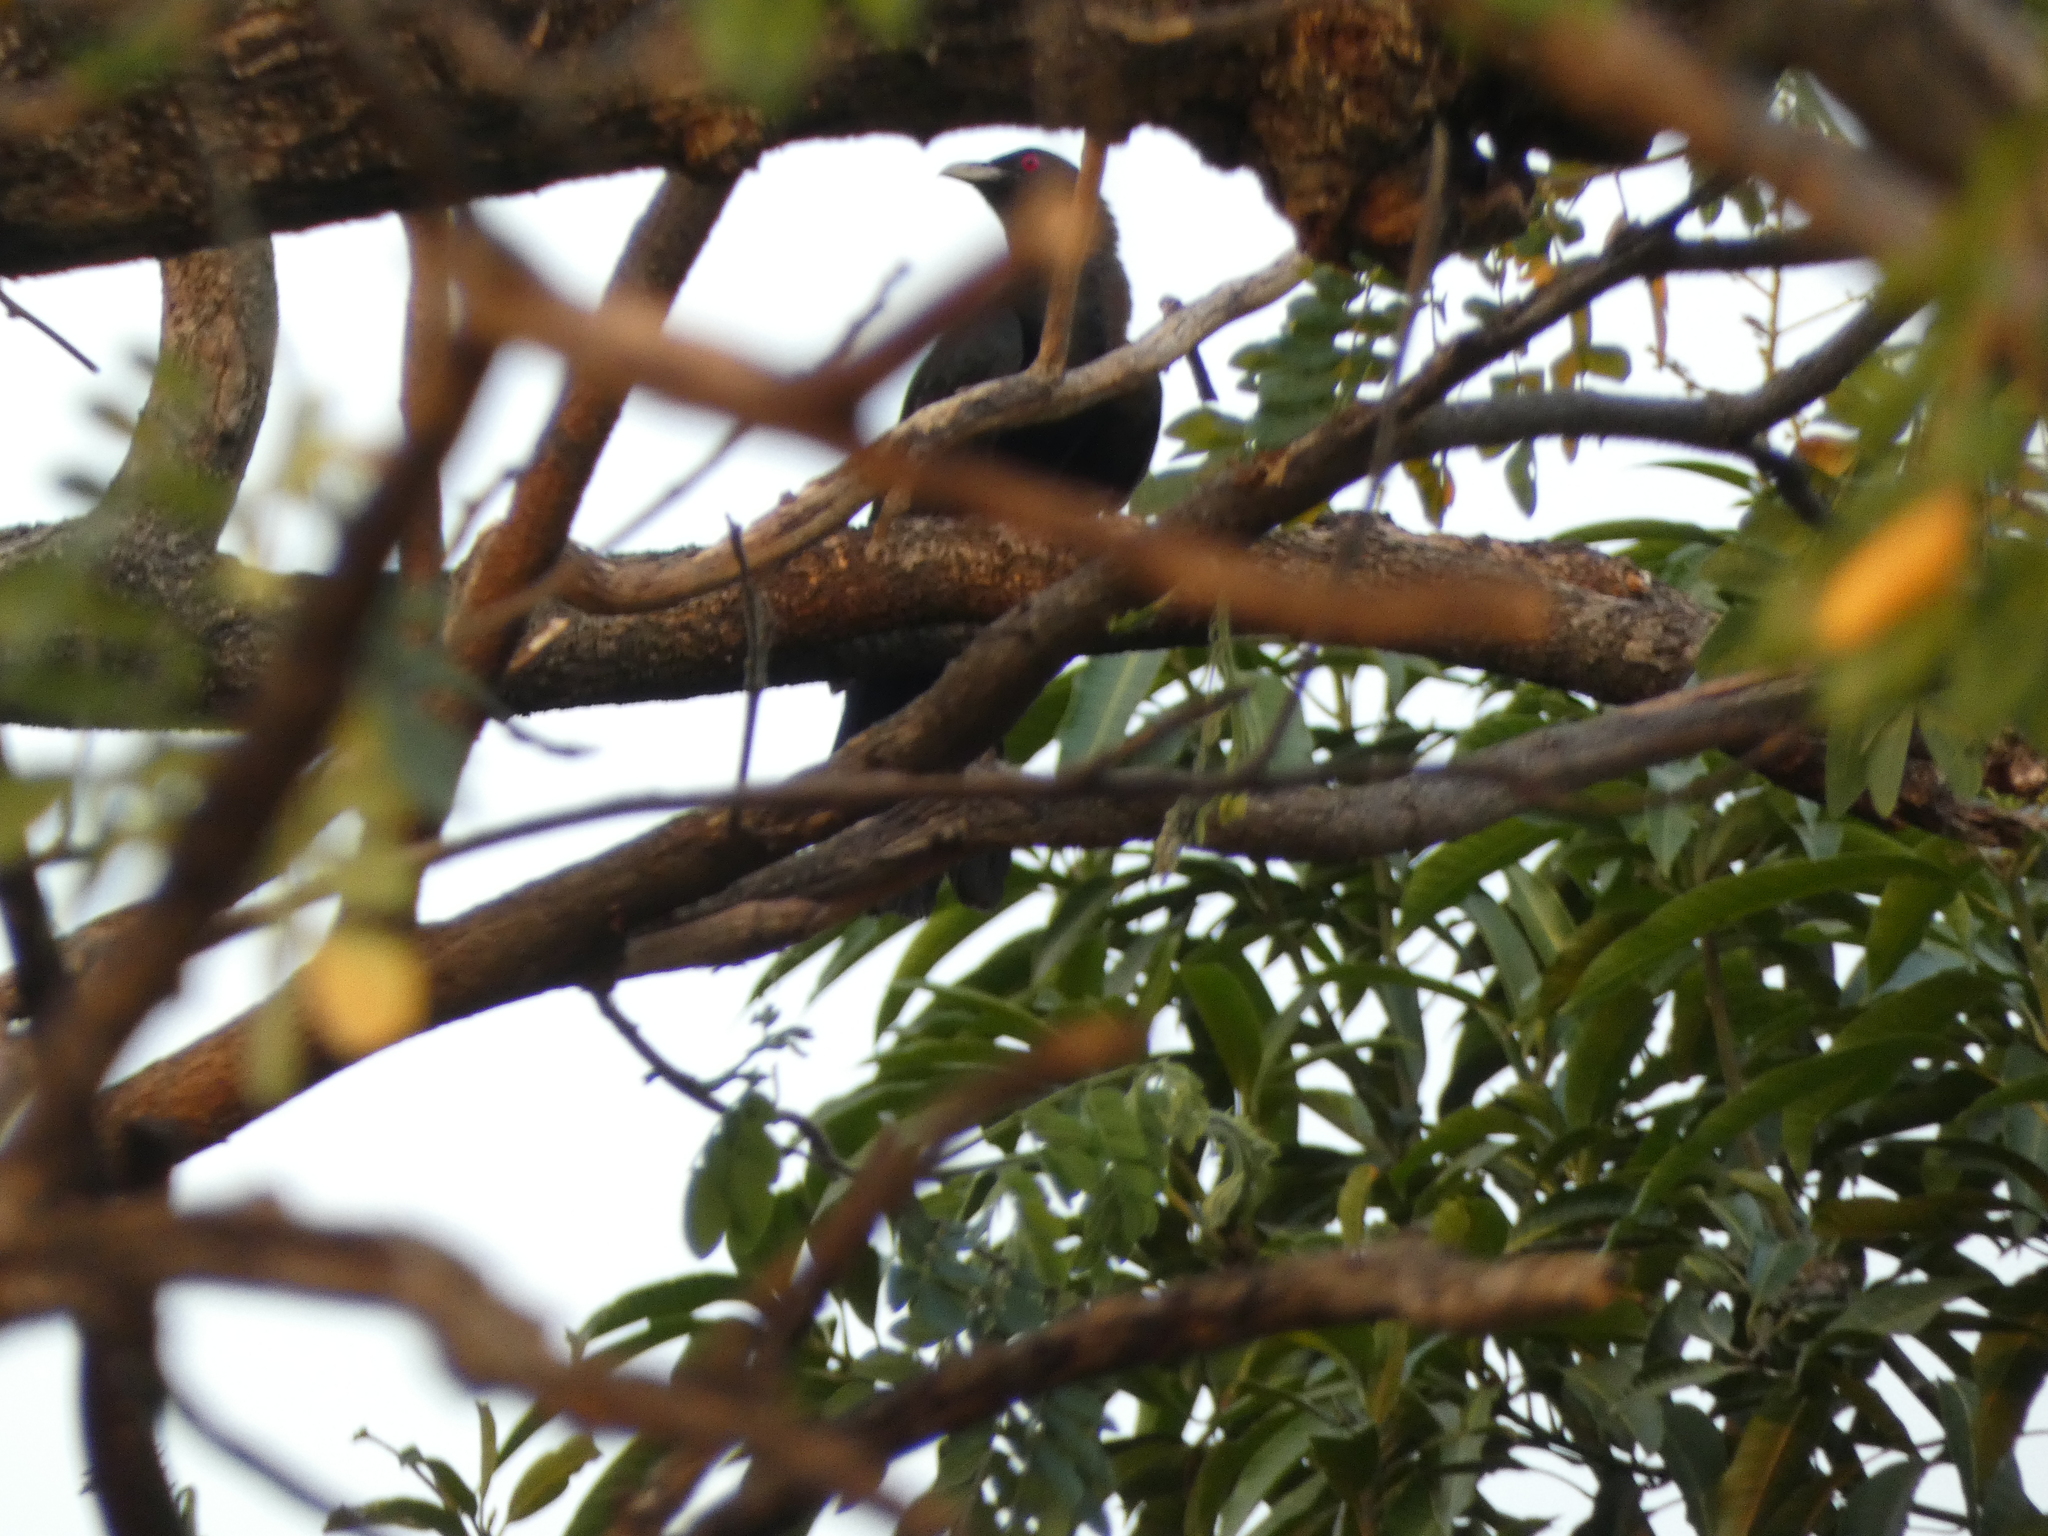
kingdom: Animalia
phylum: Chordata
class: Aves
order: Cuculiformes
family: Cuculidae
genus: Eudynamys
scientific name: Eudynamys scolopaceus
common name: Asian koel
